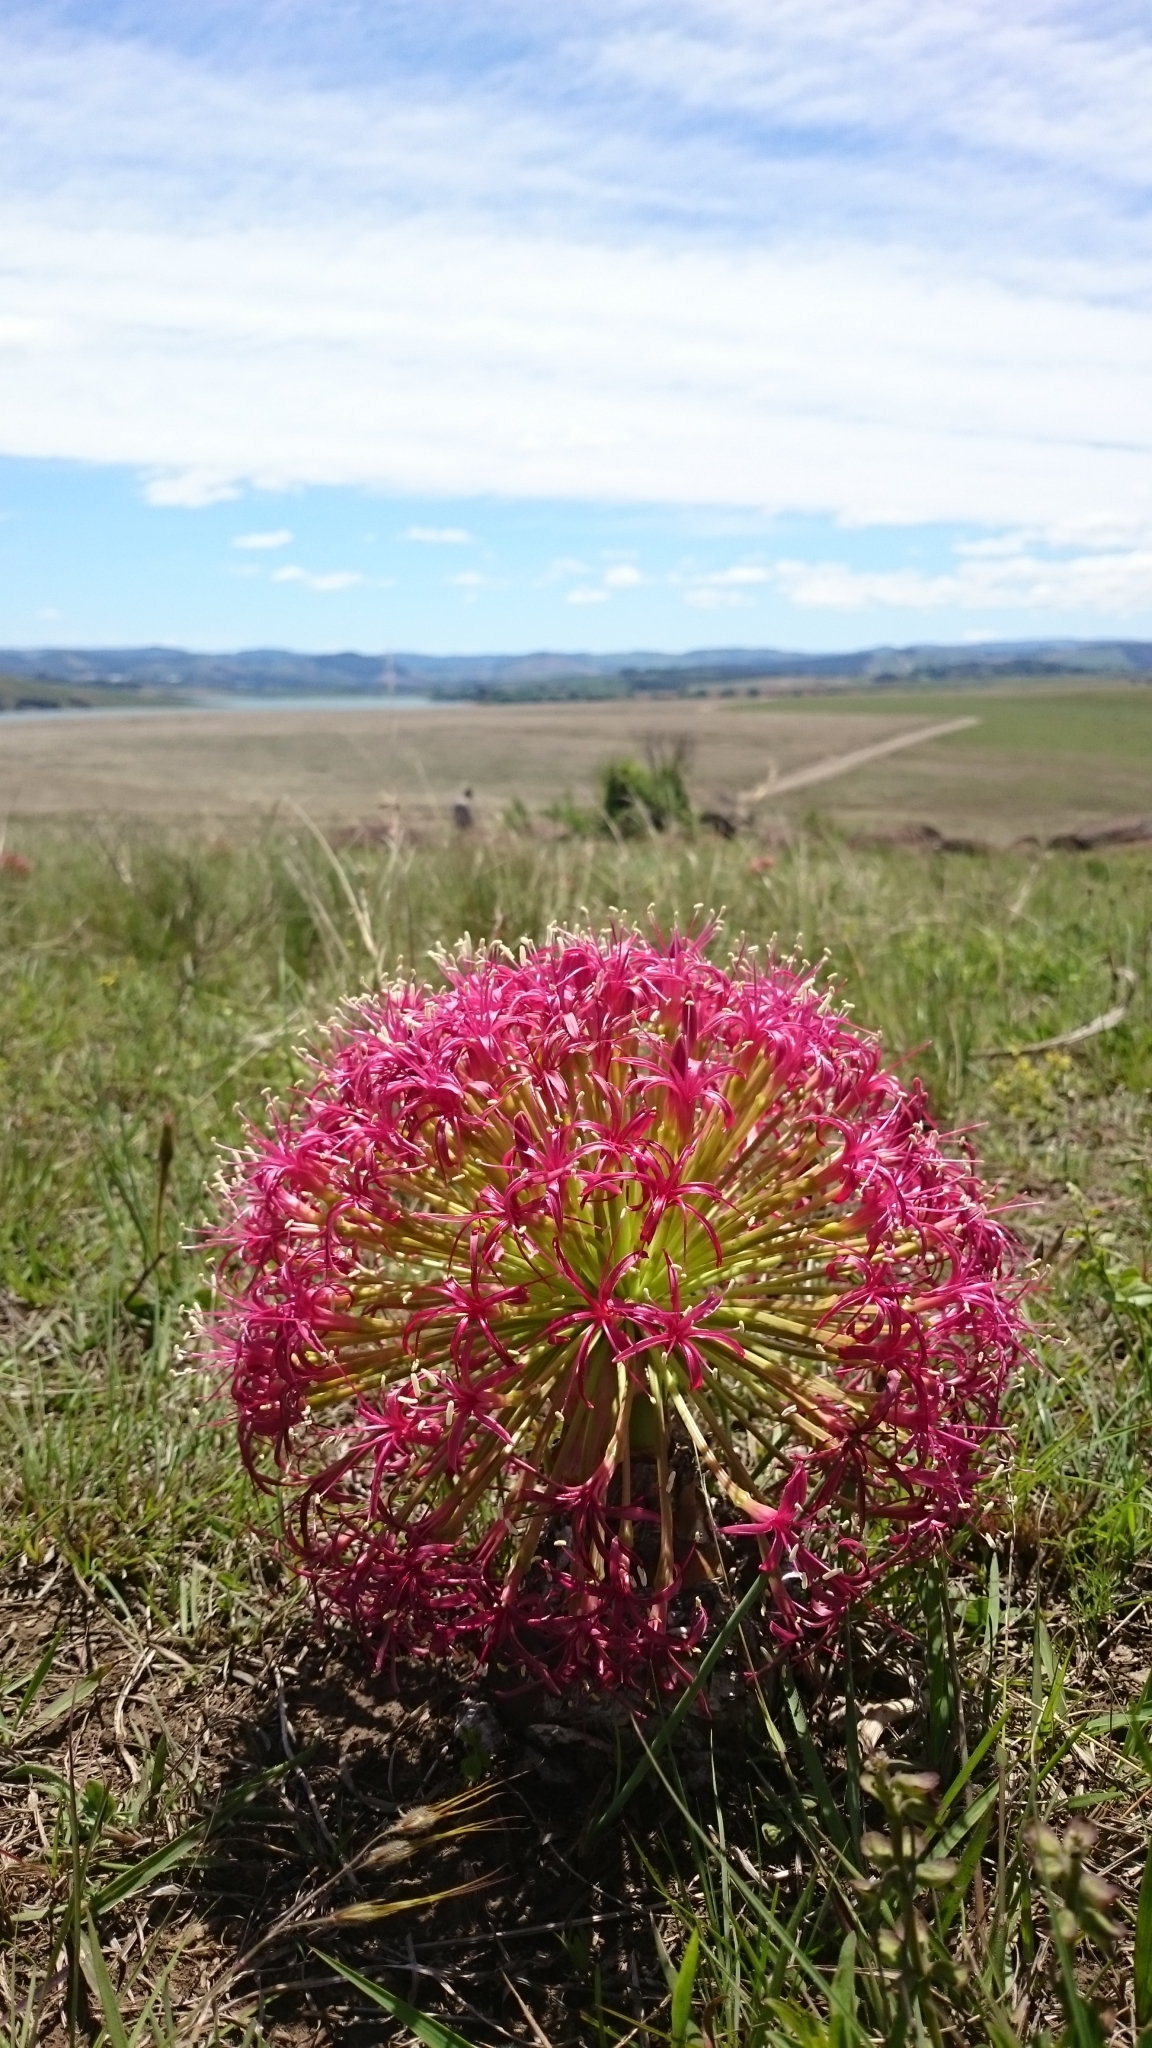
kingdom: Plantae
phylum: Tracheophyta
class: Liliopsida
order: Asparagales
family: Amaryllidaceae
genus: Boophone
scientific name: Boophone disticha
